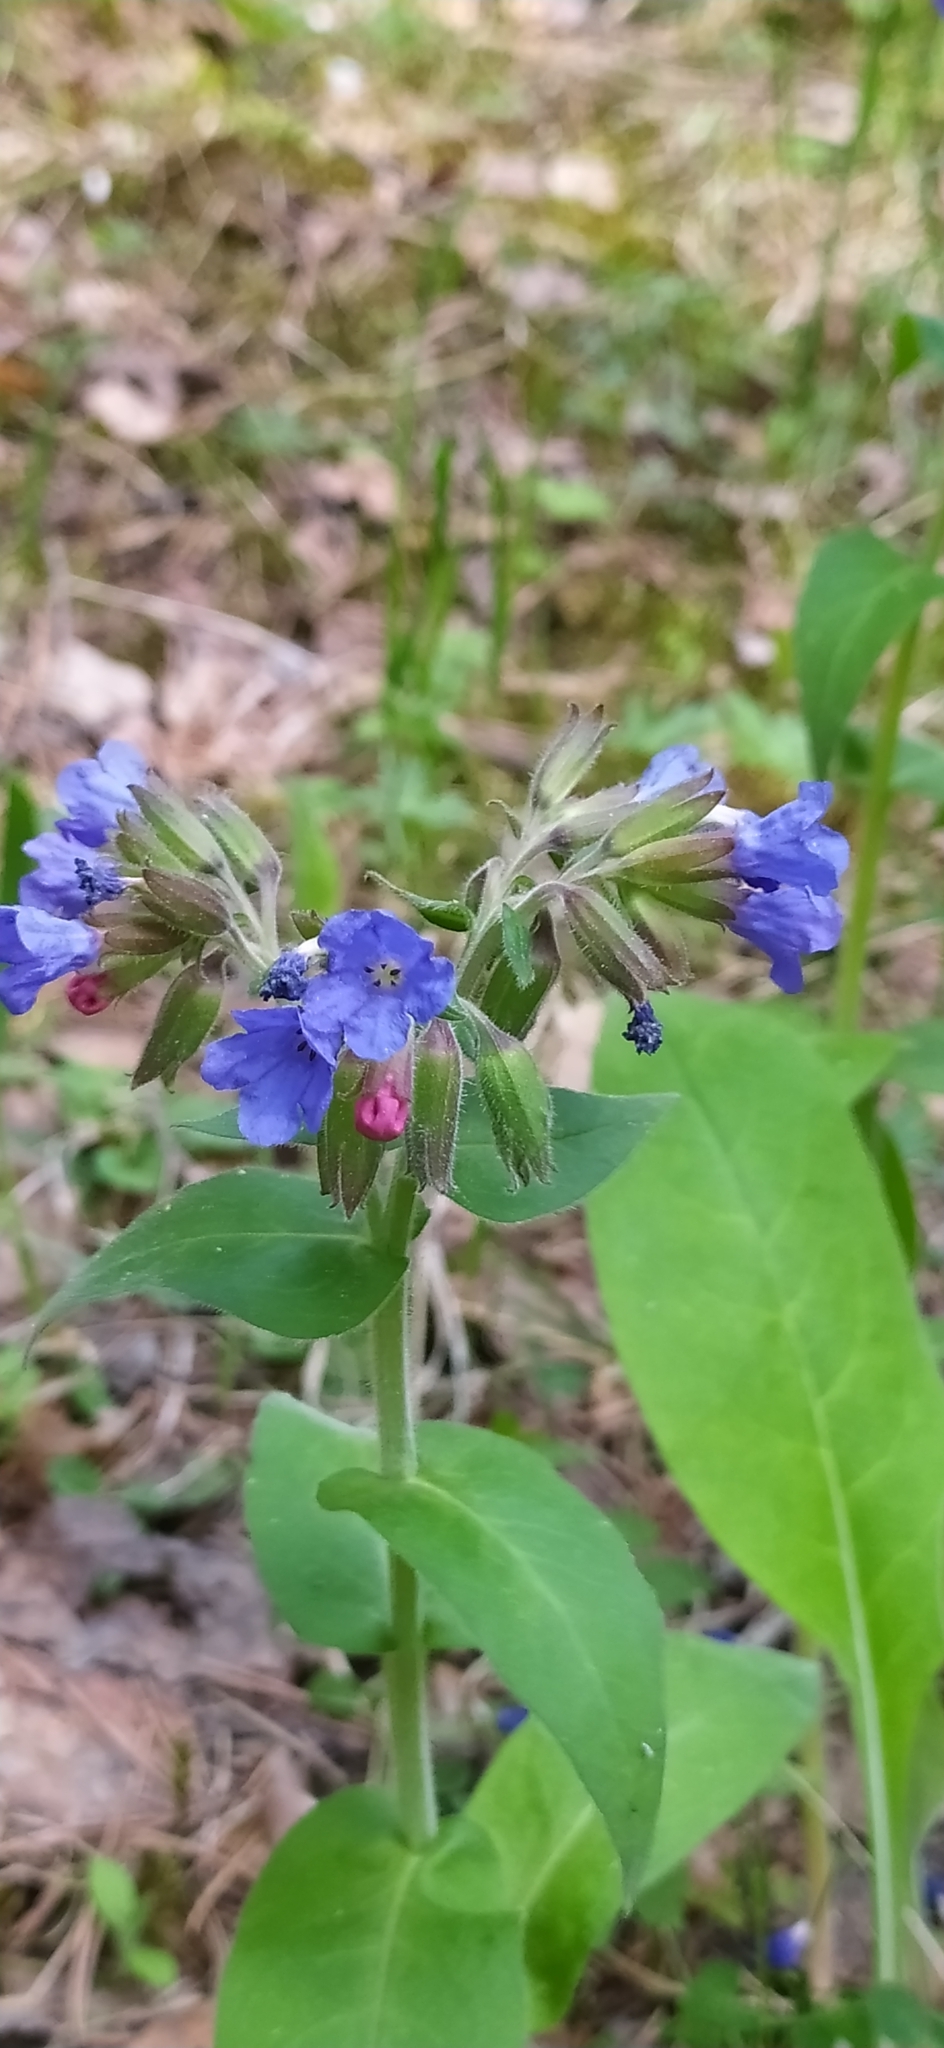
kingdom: Plantae
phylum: Tracheophyta
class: Magnoliopsida
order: Boraginales
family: Boraginaceae
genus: Pulmonaria
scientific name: Pulmonaria mollis
